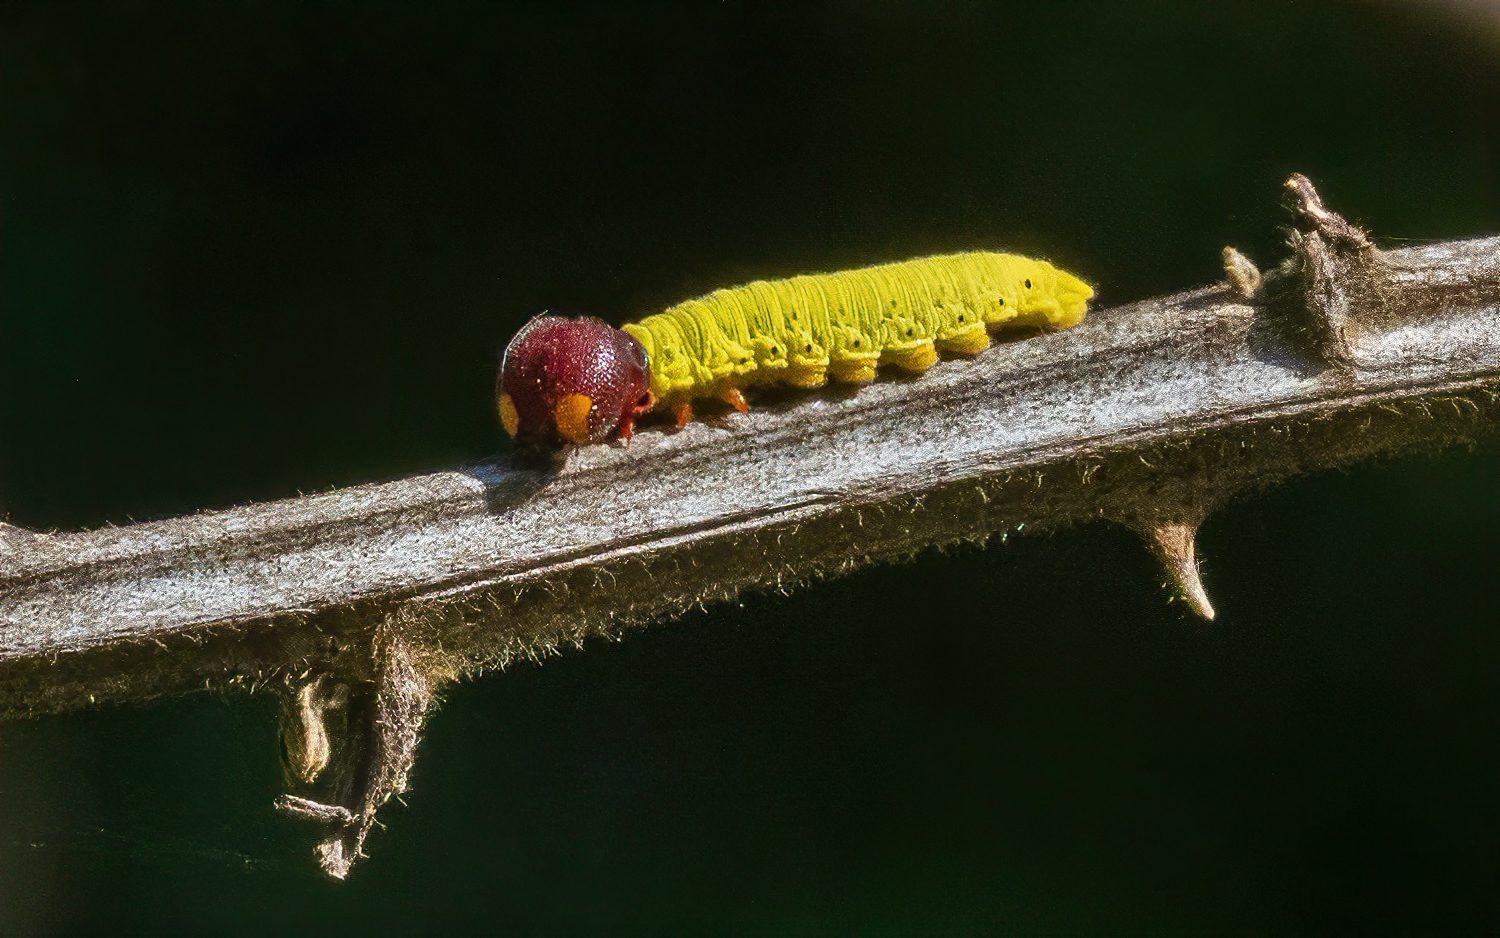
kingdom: Animalia
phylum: Arthropoda
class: Insecta
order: Lepidoptera
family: Hesperiidae
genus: Epargyreus
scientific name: Epargyreus clarus
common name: Silver-spotted skipper
